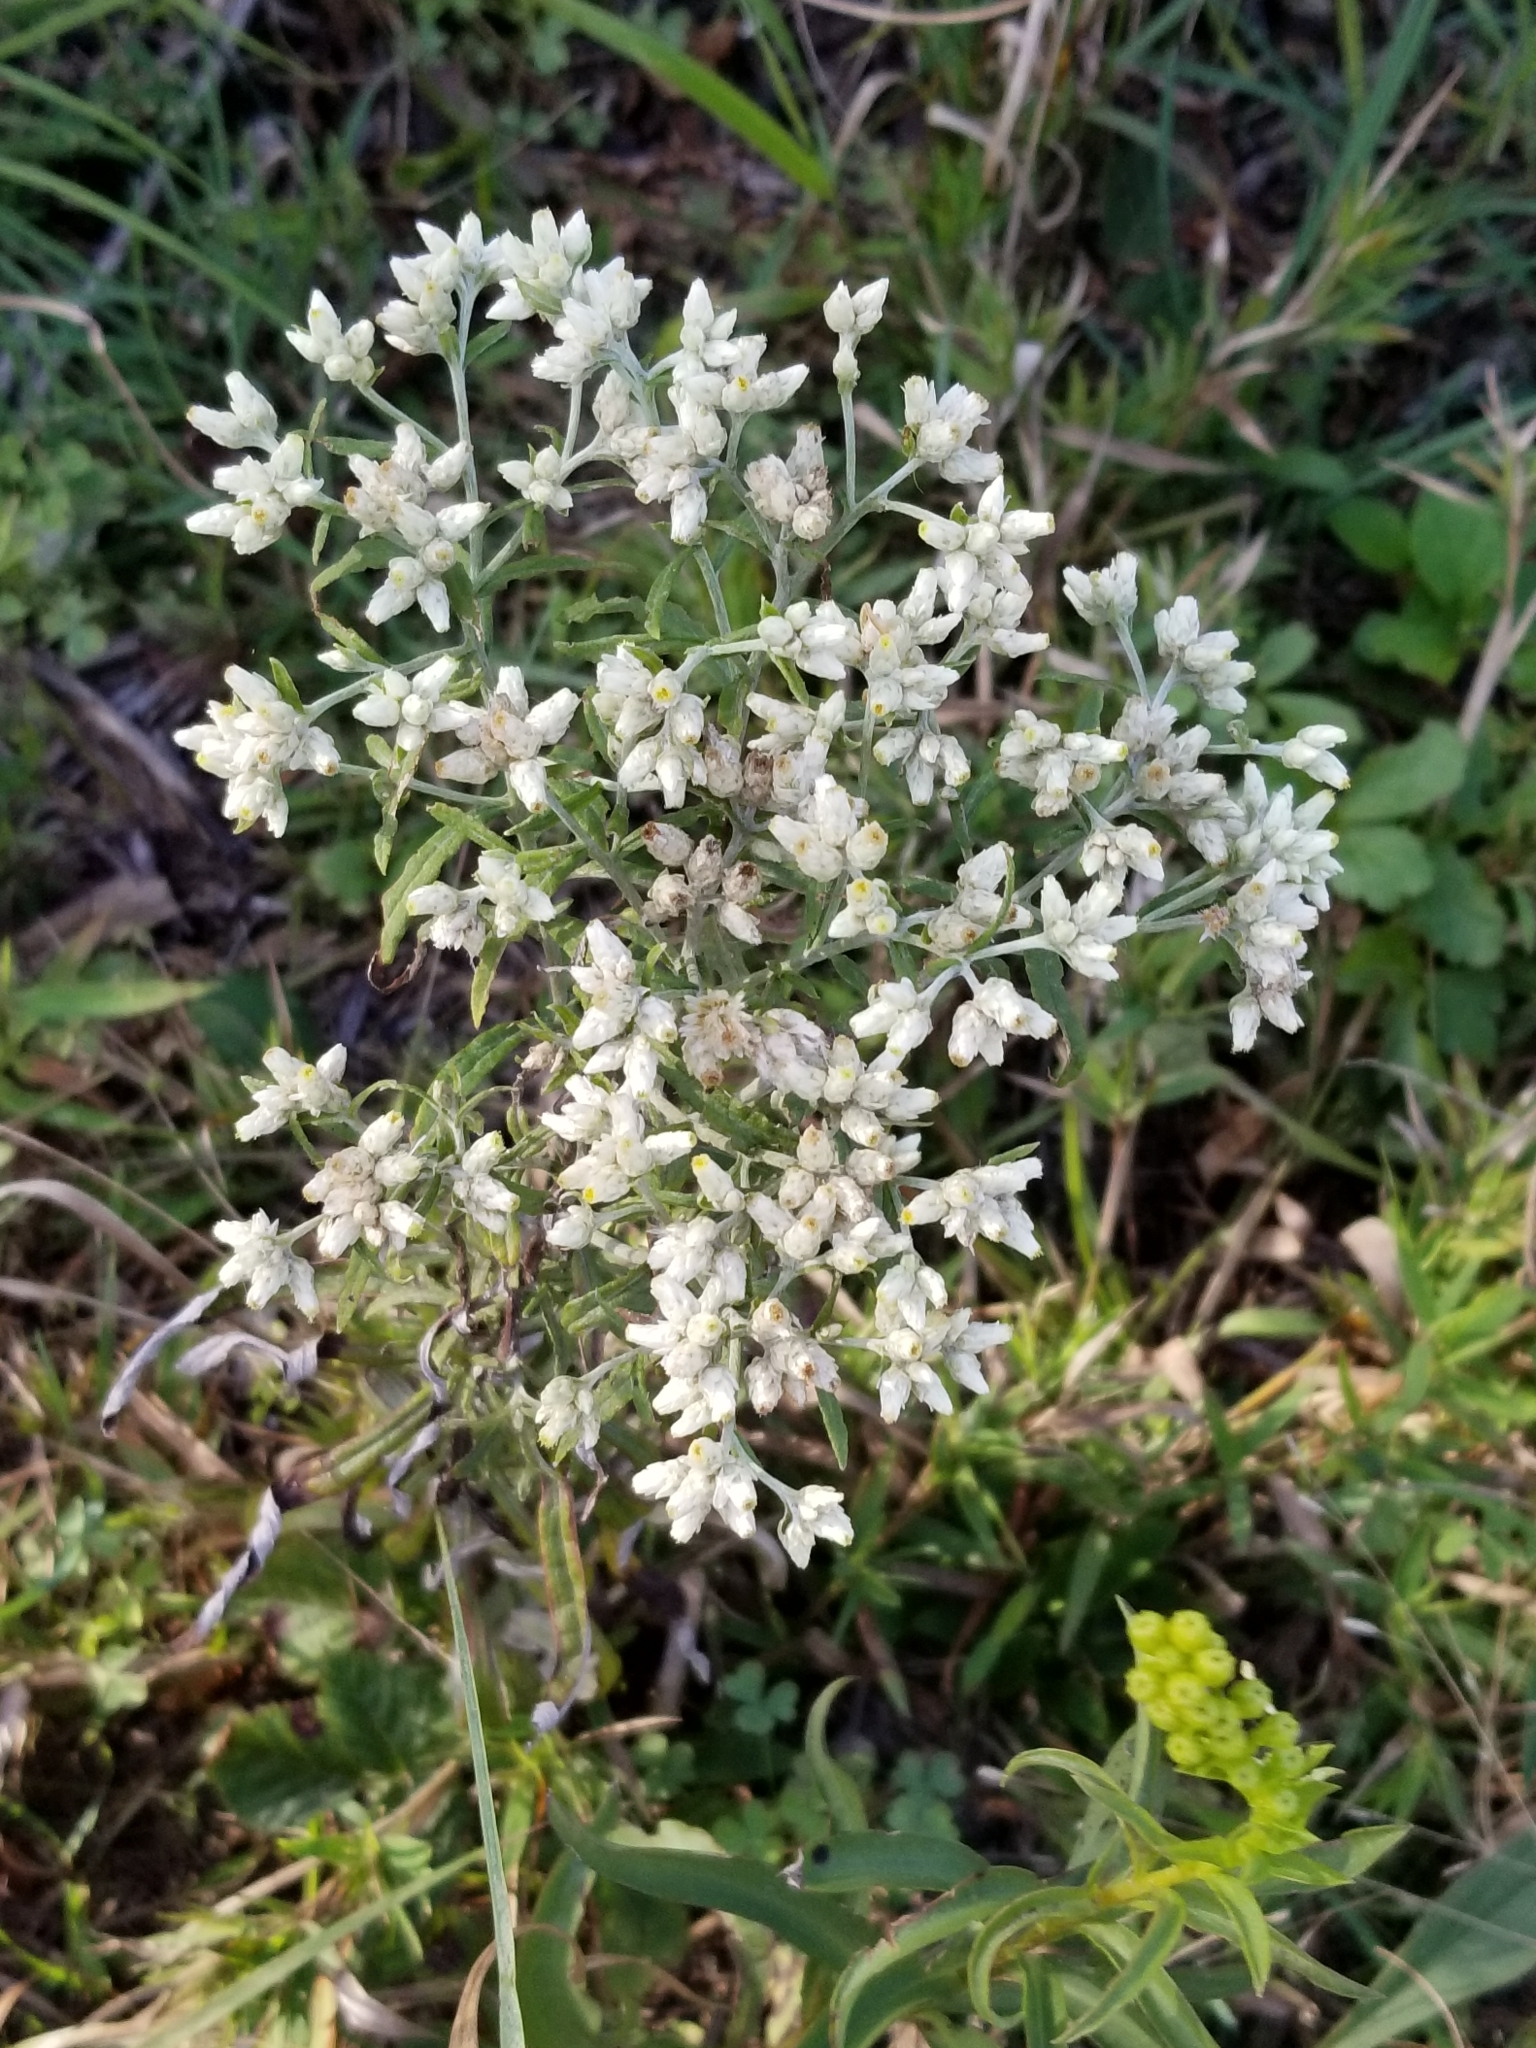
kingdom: Plantae
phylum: Tracheophyta
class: Magnoliopsida
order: Asterales
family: Asteraceae
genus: Pseudognaphalium
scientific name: Pseudognaphalium obtusifolium
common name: Eastern rabbit-tobacco
